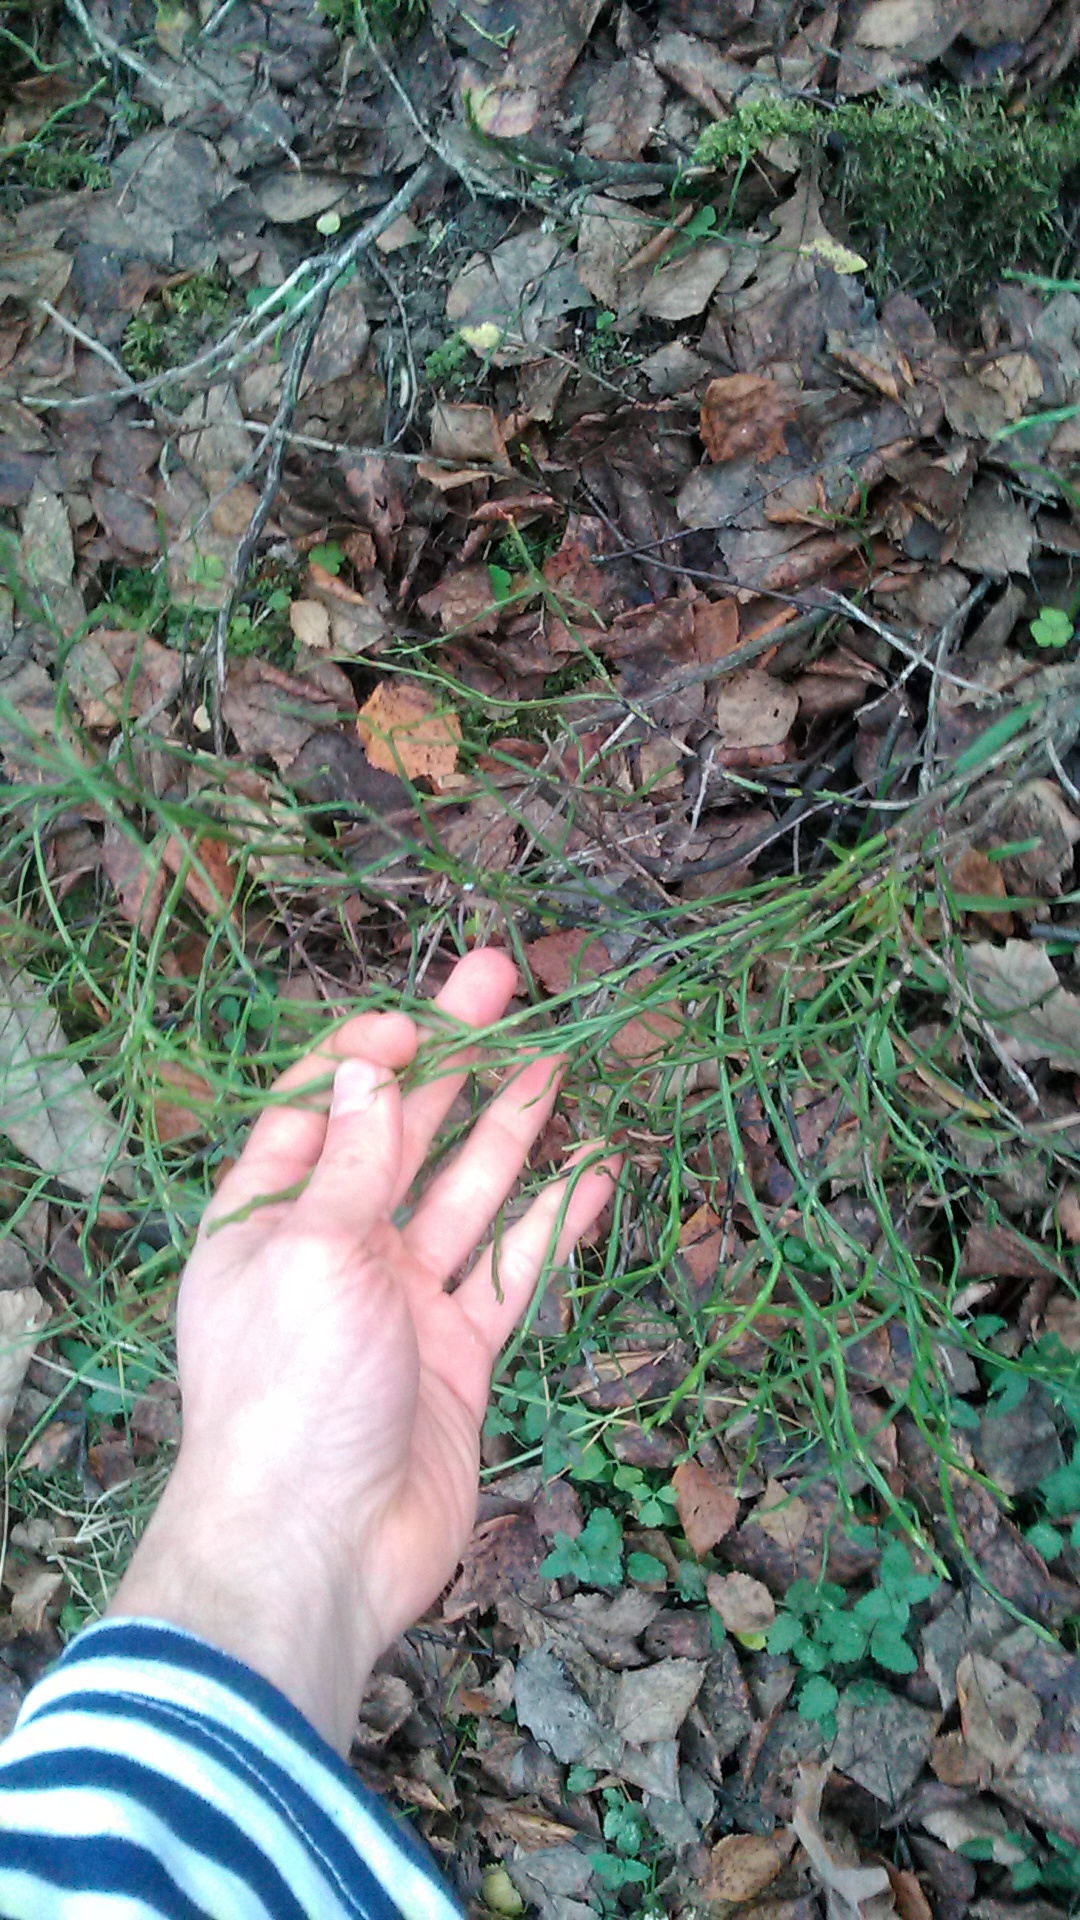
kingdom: Plantae
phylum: Tracheophyta
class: Magnoliopsida
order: Ericales
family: Ericaceae
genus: Vaccinium
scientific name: Vaccinium myrtillus
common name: Bilberry
